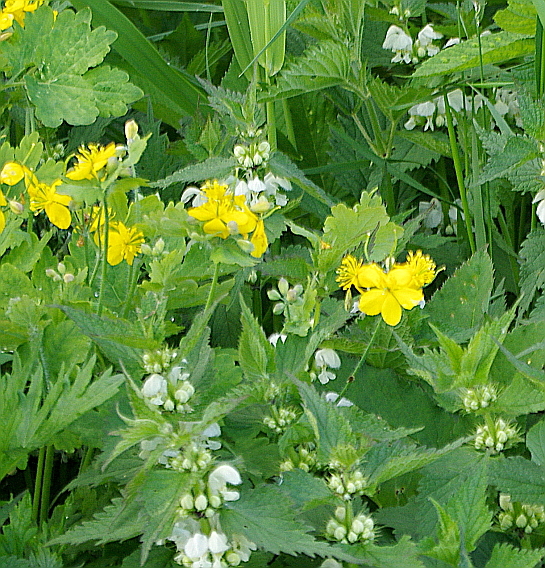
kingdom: Plantae
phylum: Tracheophyta
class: Magnoliopsida
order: Ranunculales
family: Papaveraceae
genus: Chelidonium
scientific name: Chelidonium majus
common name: Greater celandine
